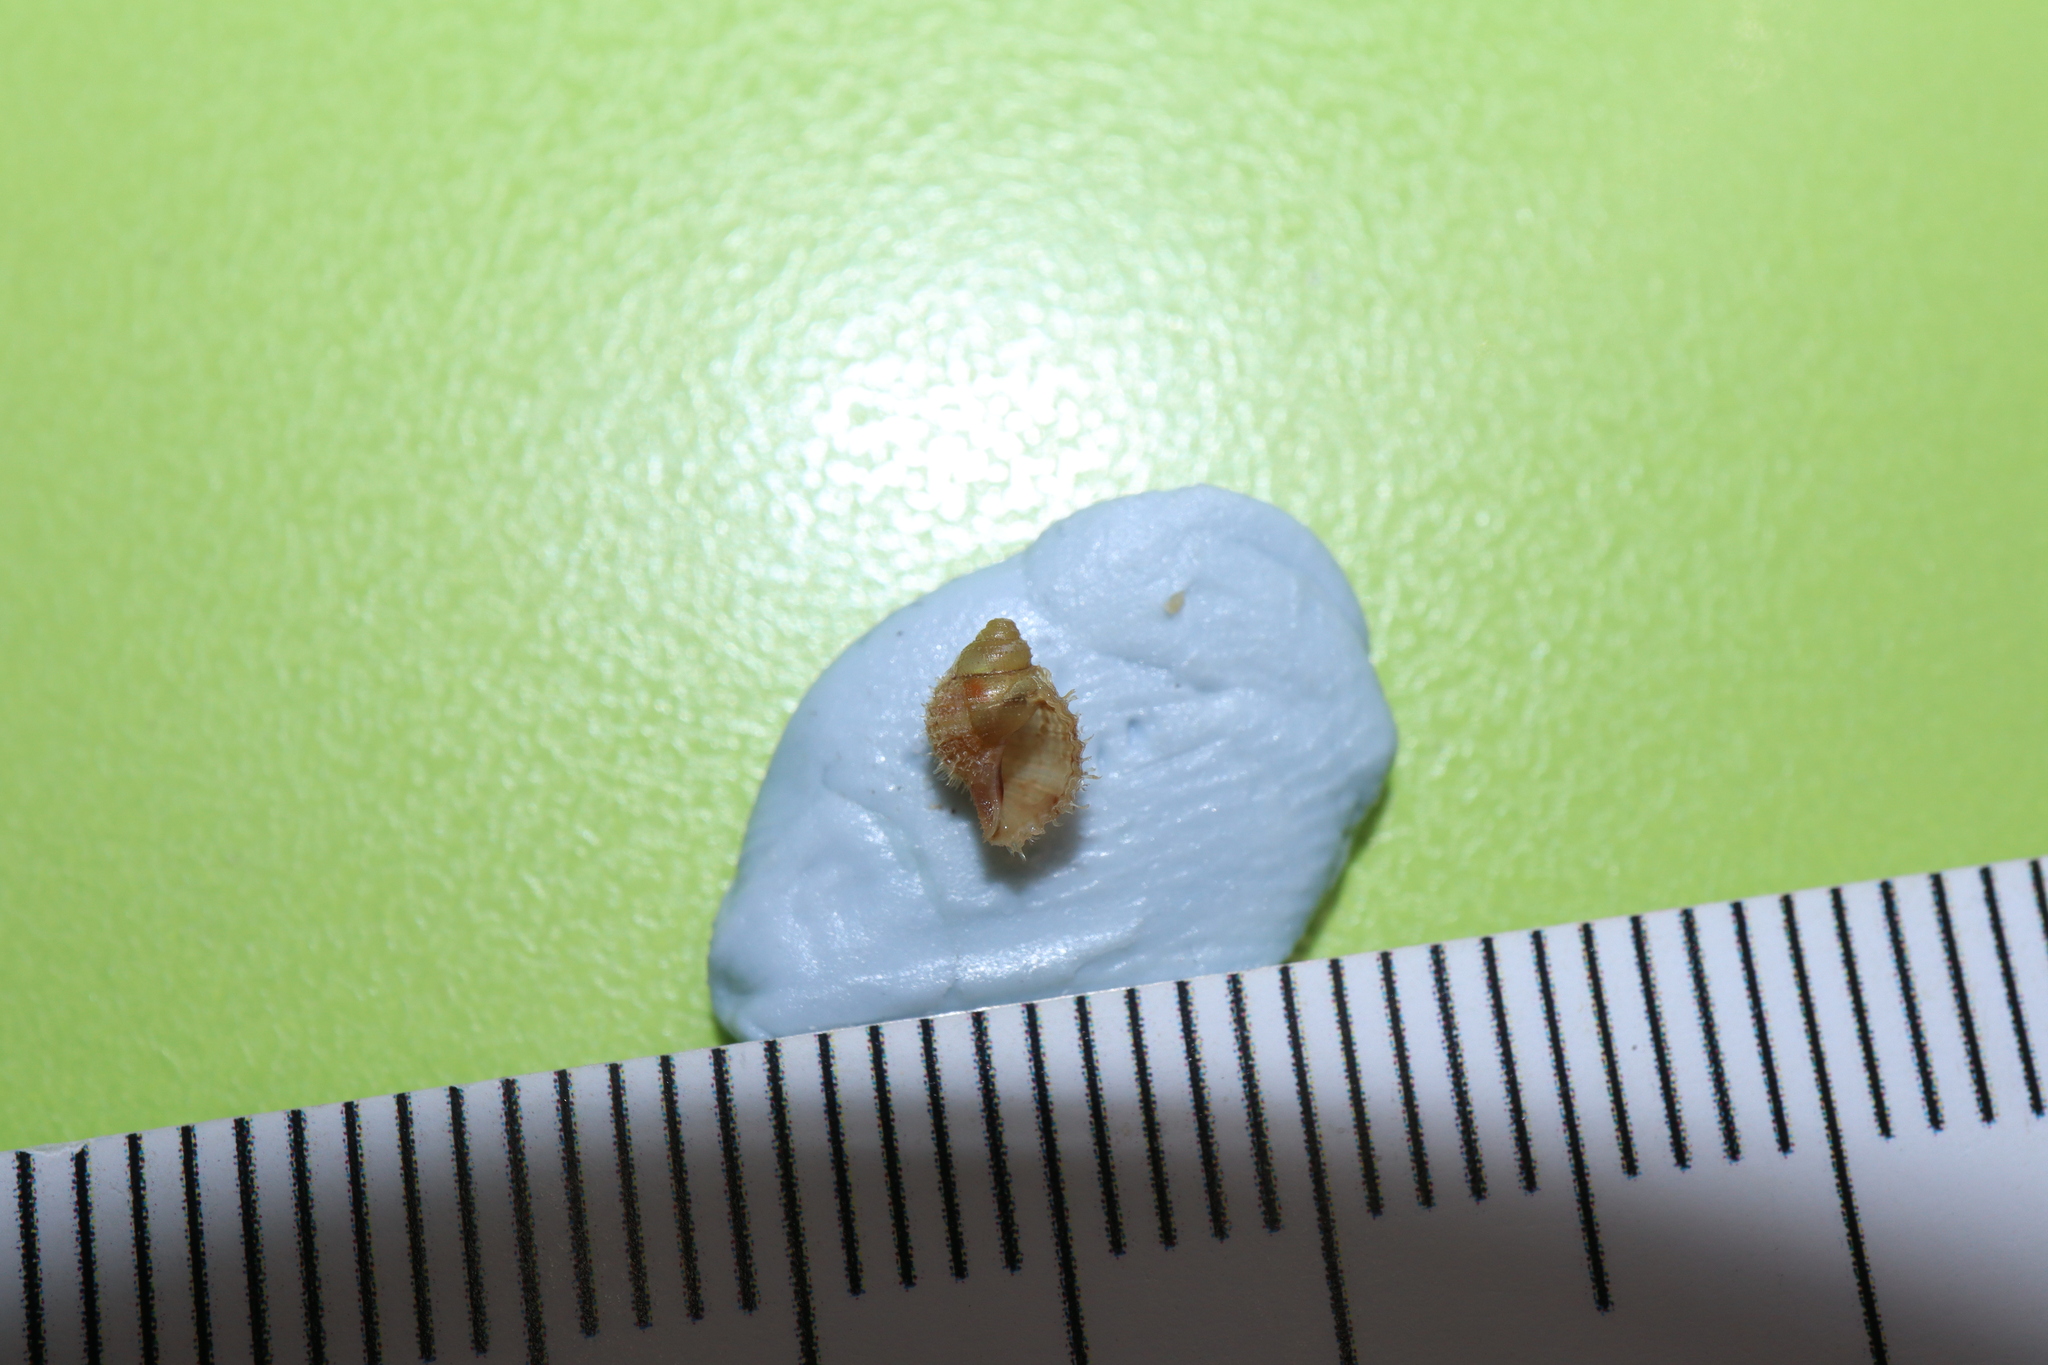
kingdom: Animalia
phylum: Mollusca
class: Gastropoda
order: Littorinimorpha
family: Cymatiidae
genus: Cabestana
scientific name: Cabestana spengleri
